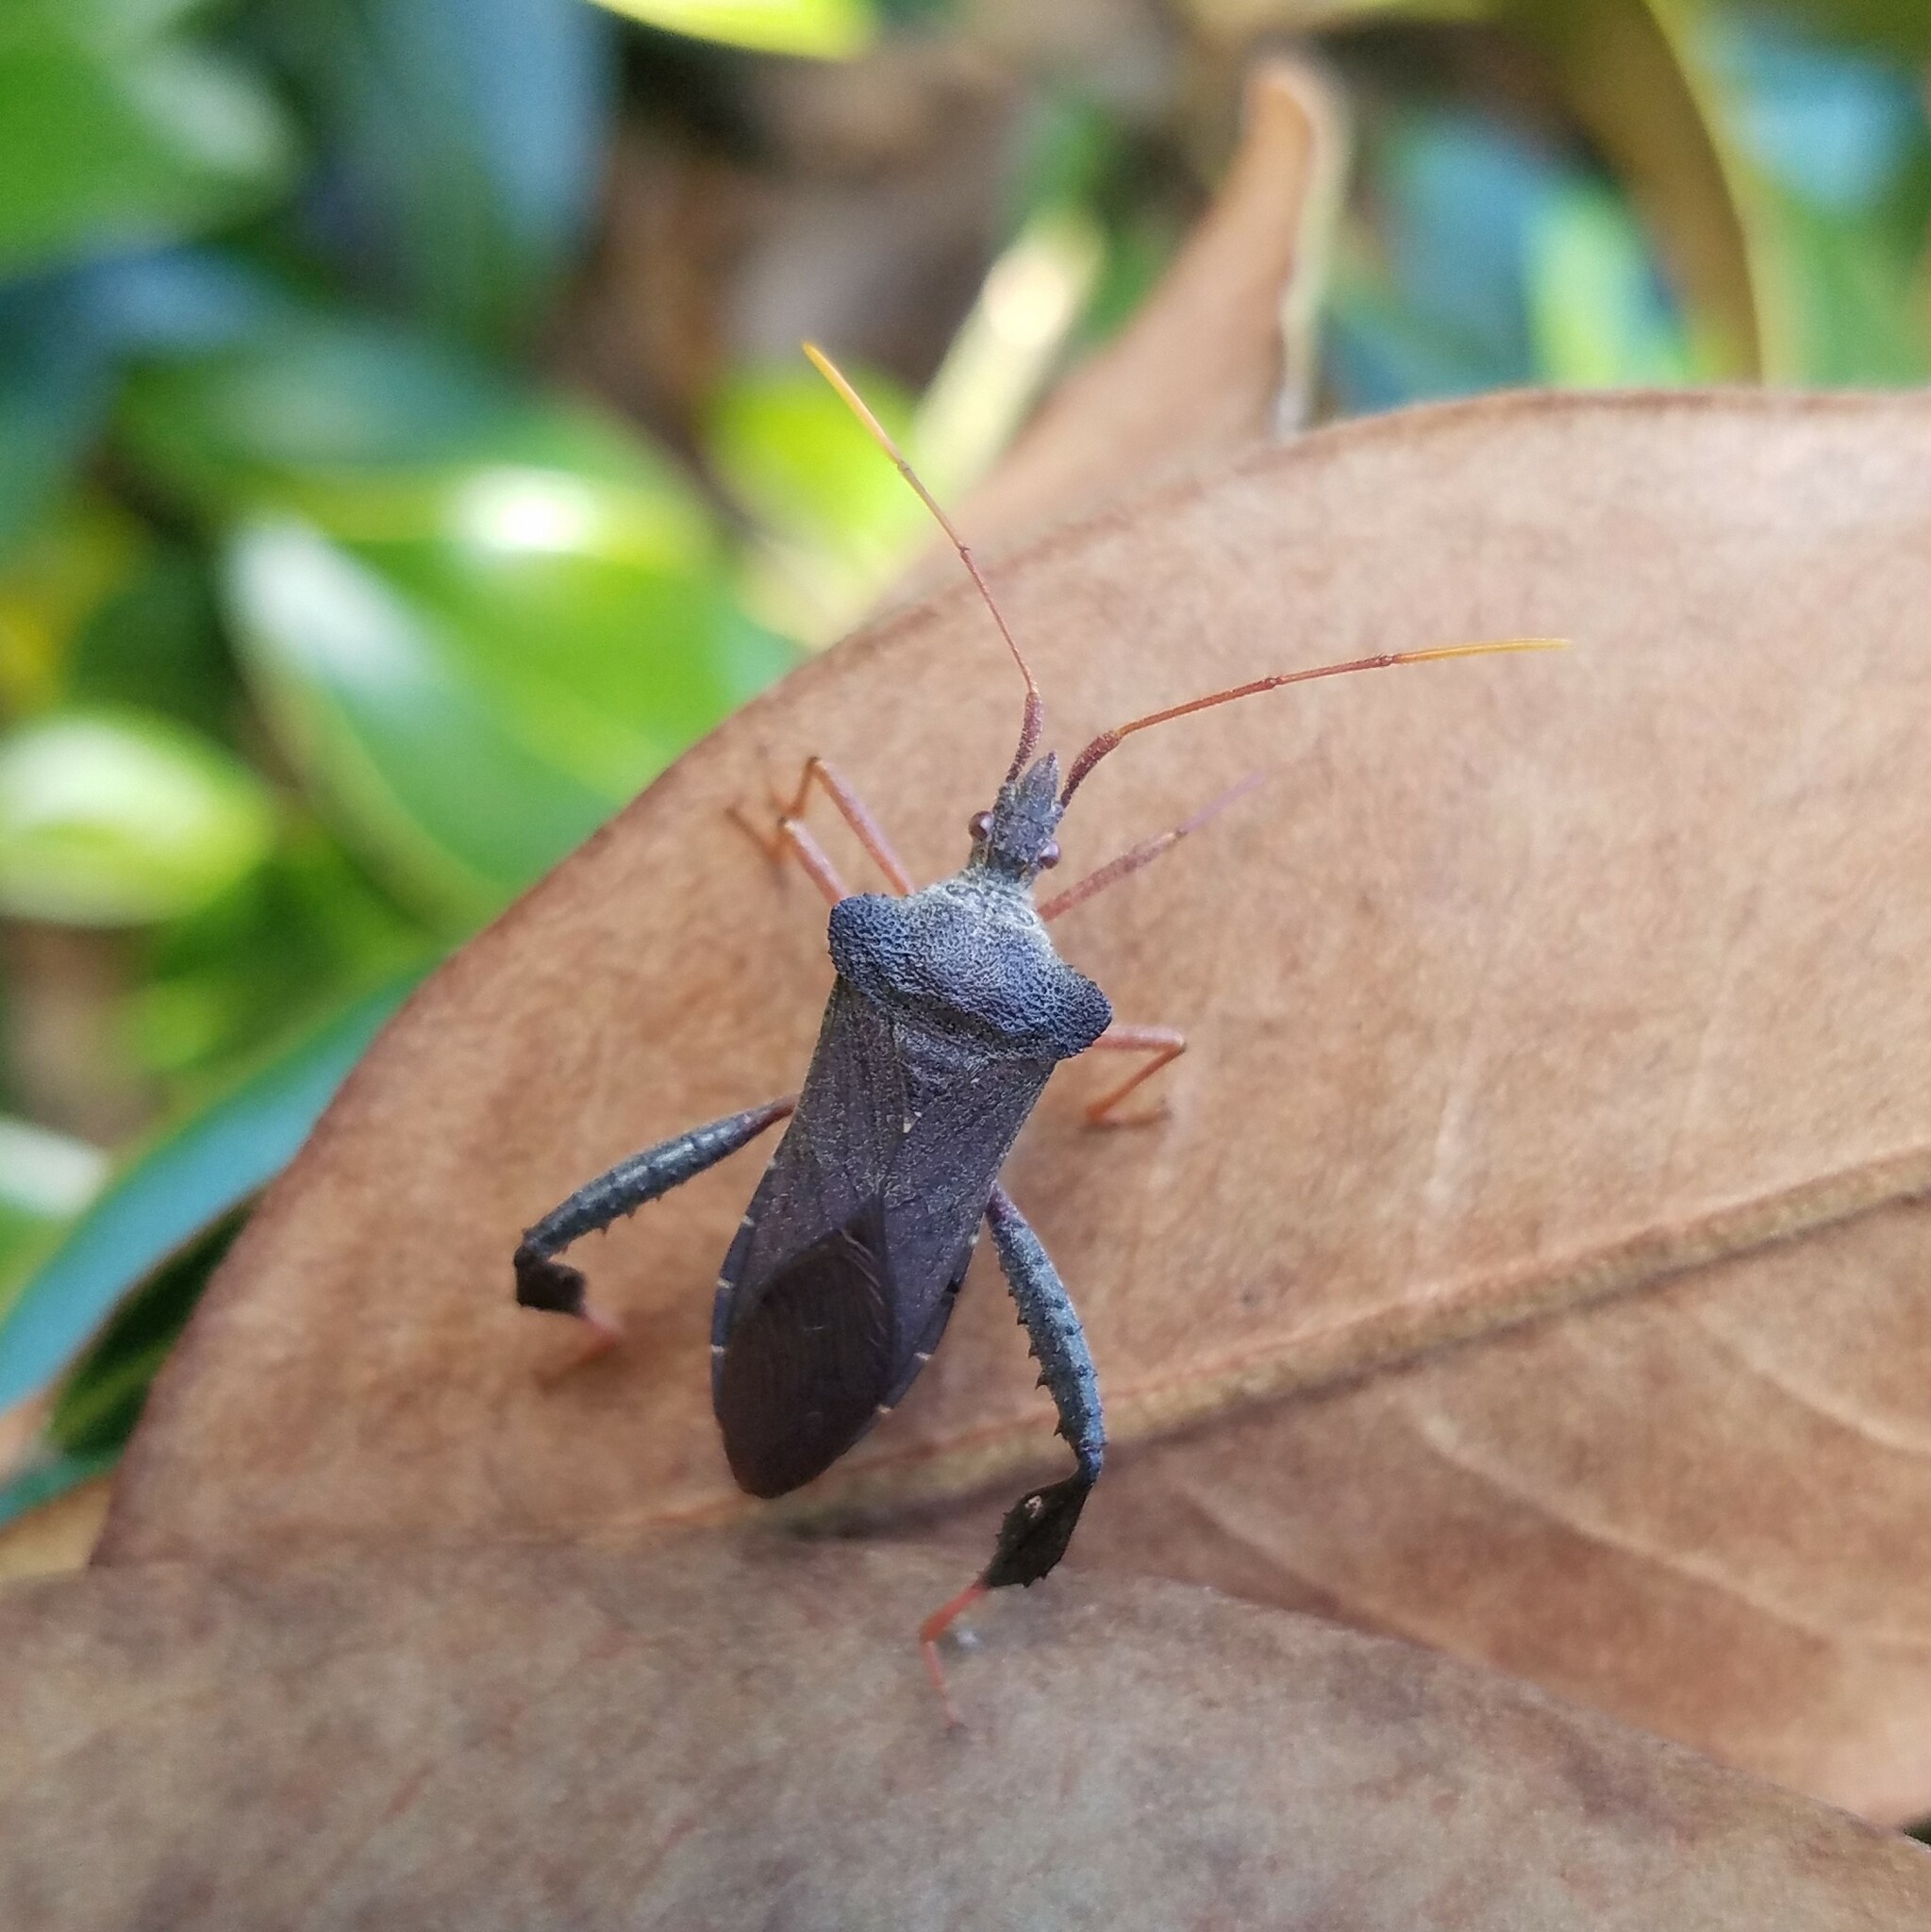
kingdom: Animalia
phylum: Arthropoda
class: Insecta
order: Hemiptera
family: Coreidae
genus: Leptoglossus
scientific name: Leptoglossus fulvicornis
